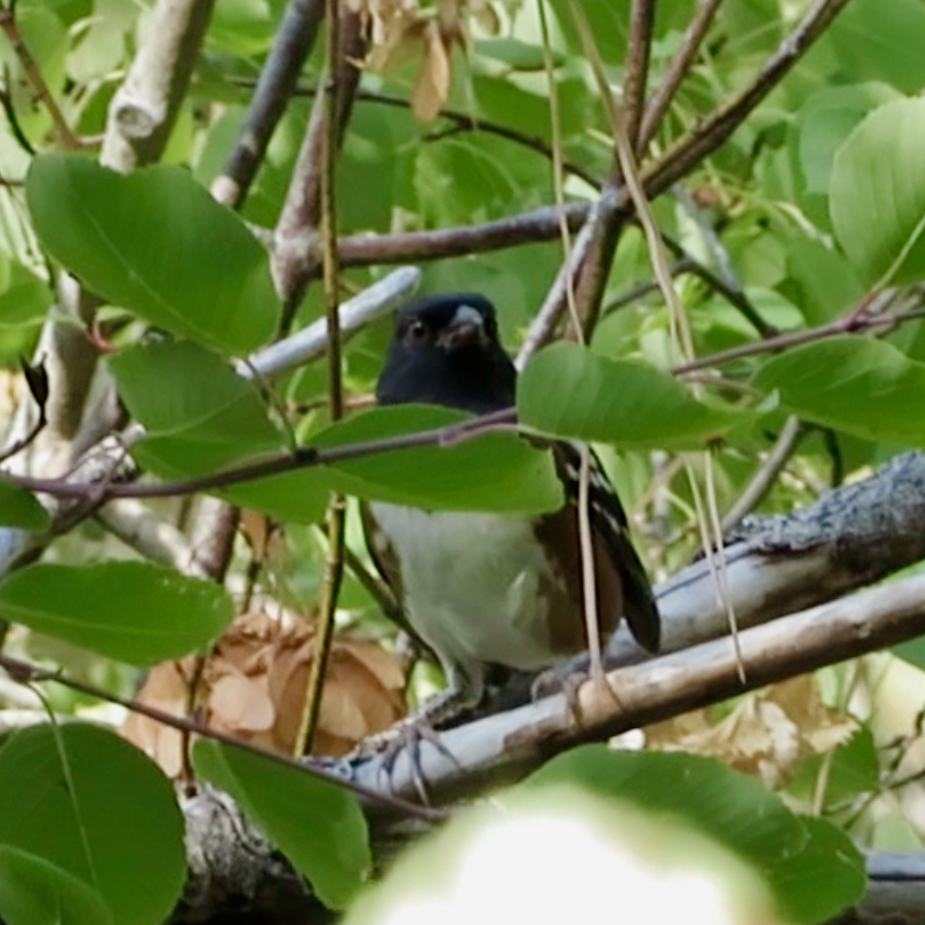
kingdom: Animalia
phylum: Chordata
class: Aves
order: Passeriformes
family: Passerellidae
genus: Pipilo
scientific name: Pipilo maculatus
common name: Spotted towhee
